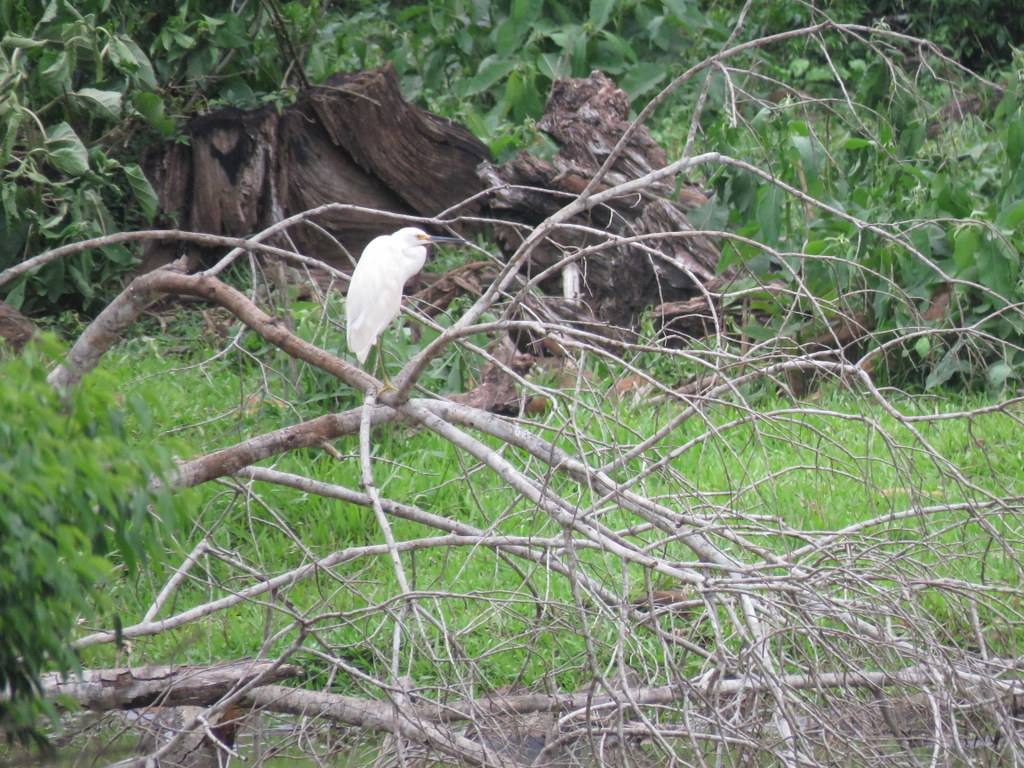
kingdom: Animalia
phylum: Chordata
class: Aves
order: Pelecaniformes
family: Ardeidae
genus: Egretta
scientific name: Egretta thula
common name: Snowy egret
